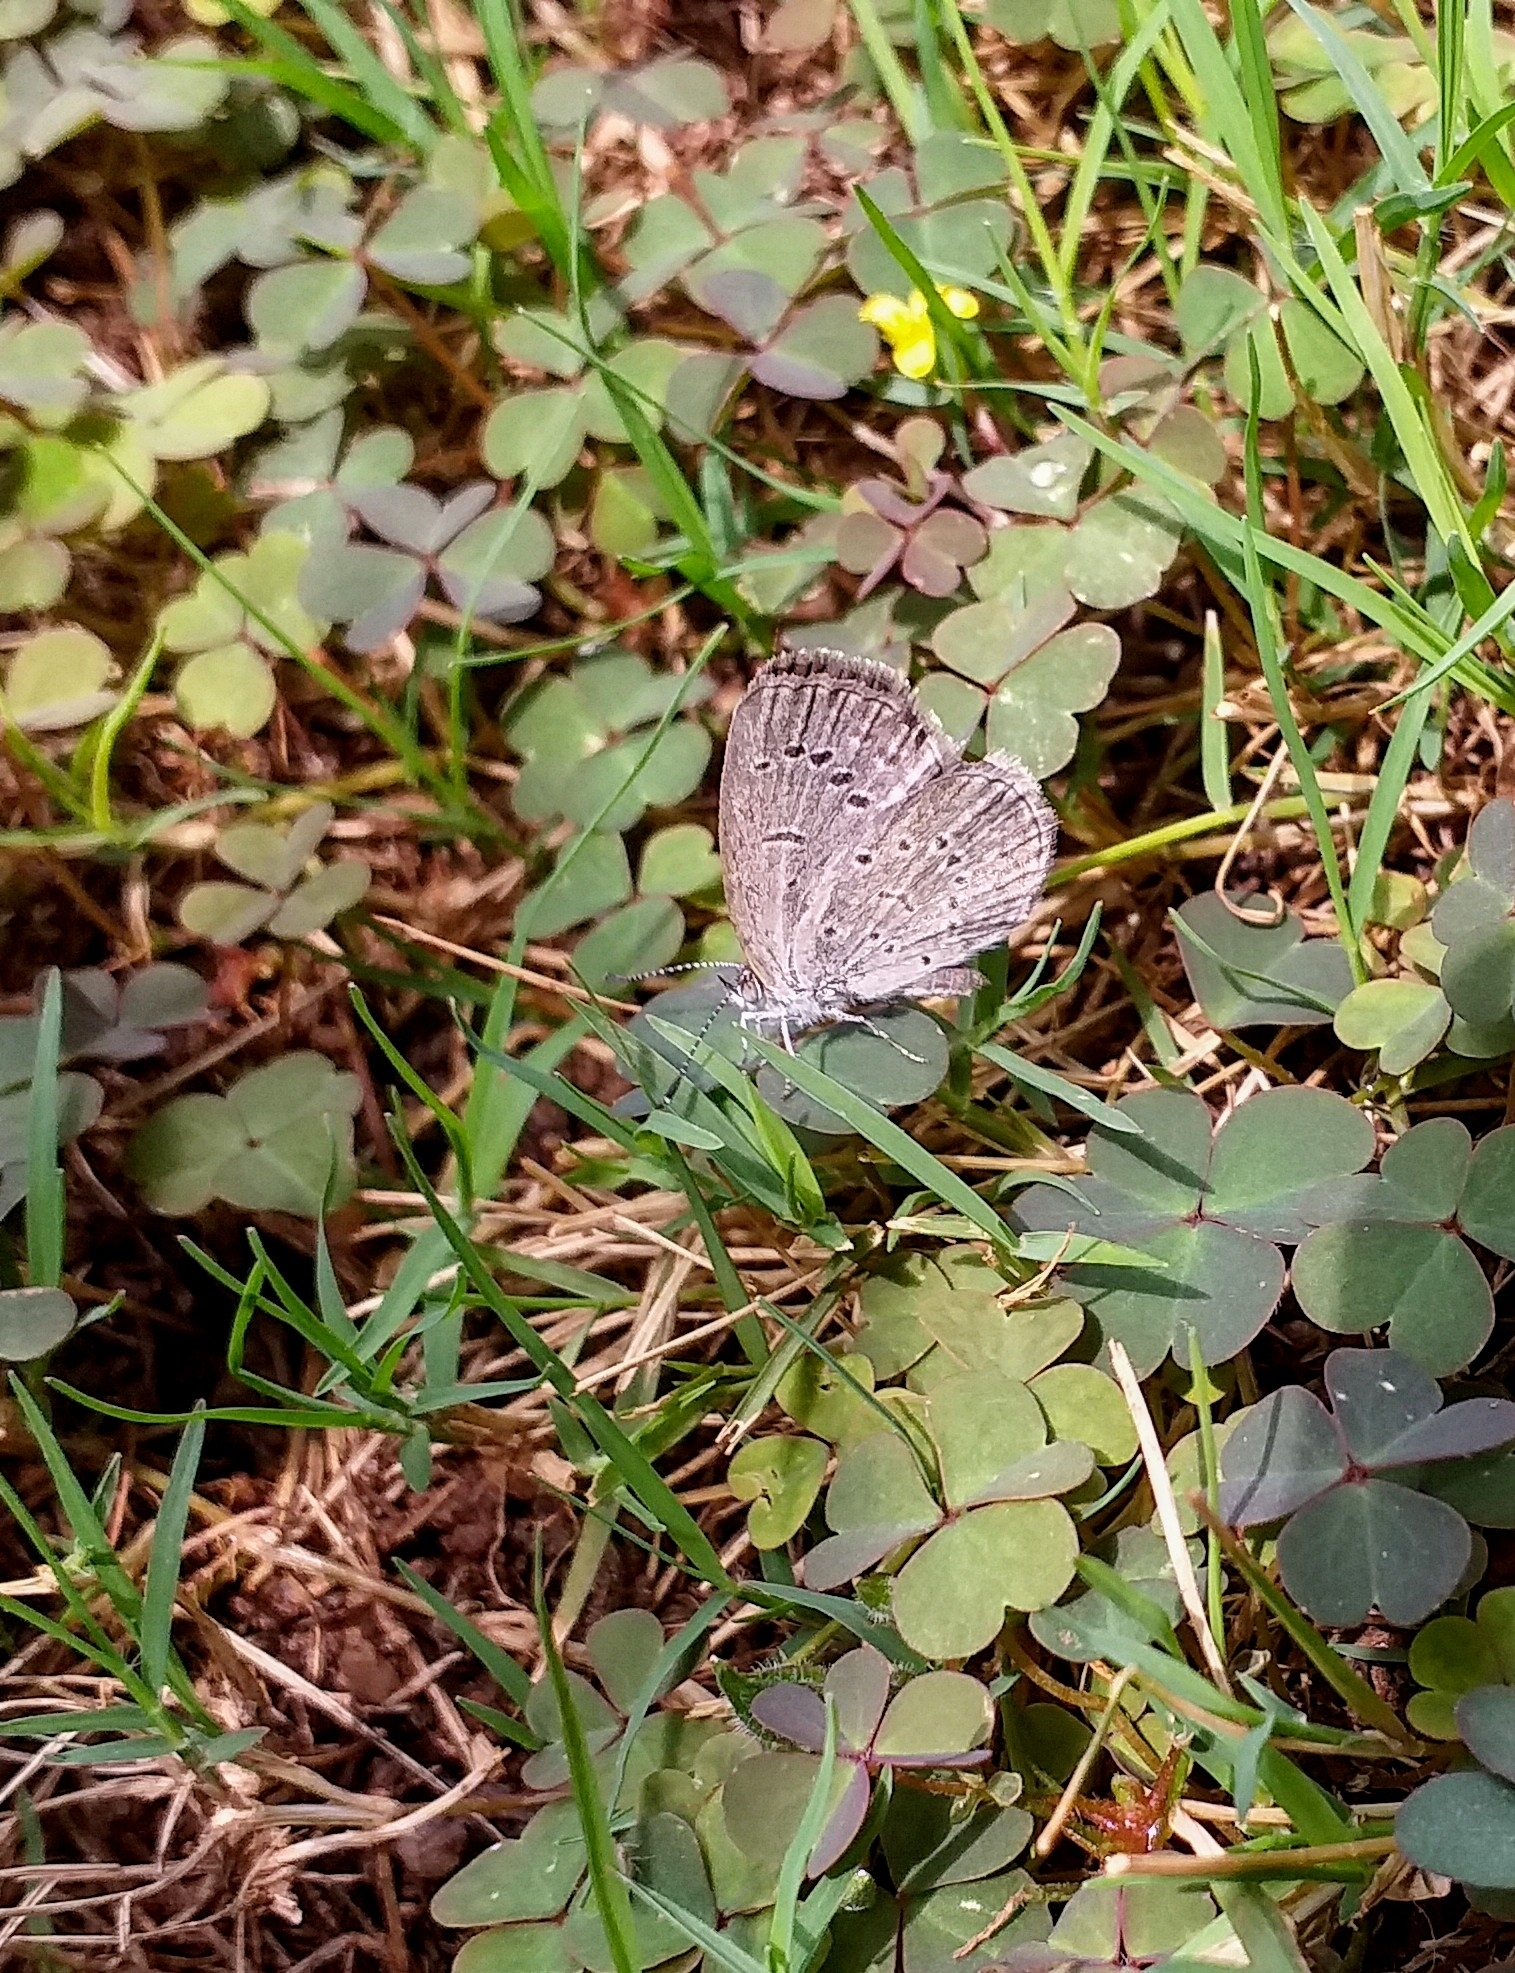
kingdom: Animalia
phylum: Arthropoda
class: Insecta
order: Lepidoptera
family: Lycaenidae
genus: Zizeeria
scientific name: Zizeeria karsandra
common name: Dark grass blue
